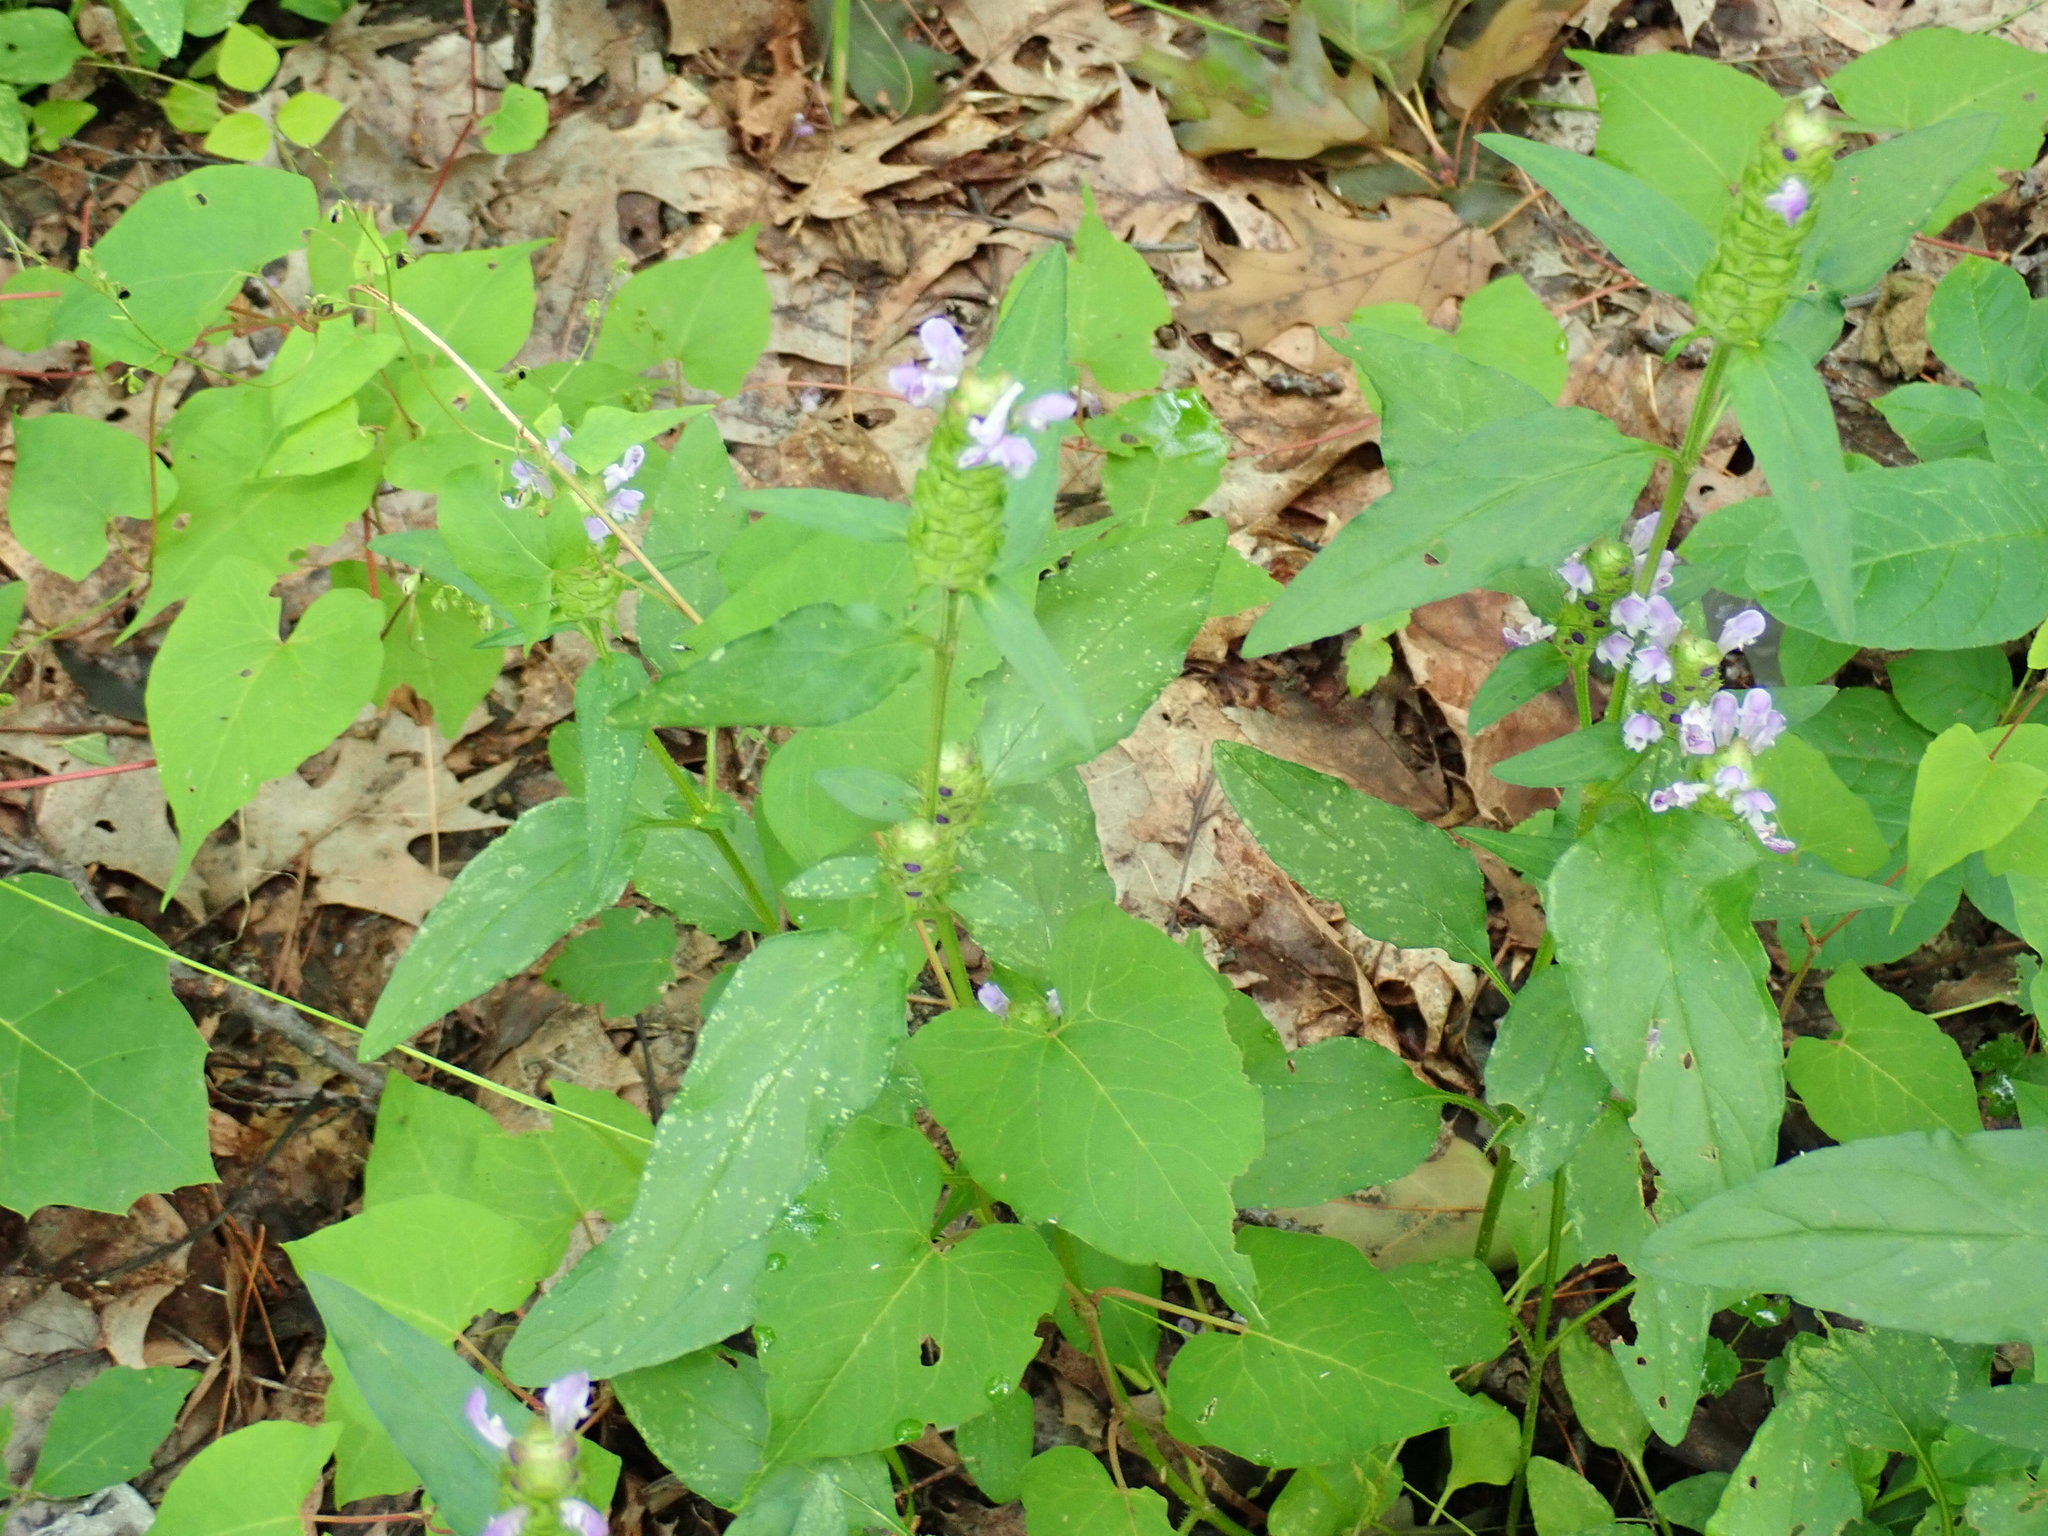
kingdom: Plantae
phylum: Tracheophyta
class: Magnoliopsida
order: Lamiales
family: Lamiaceae
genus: Prunella
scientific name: Prunella vulgaris
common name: Heal-all
